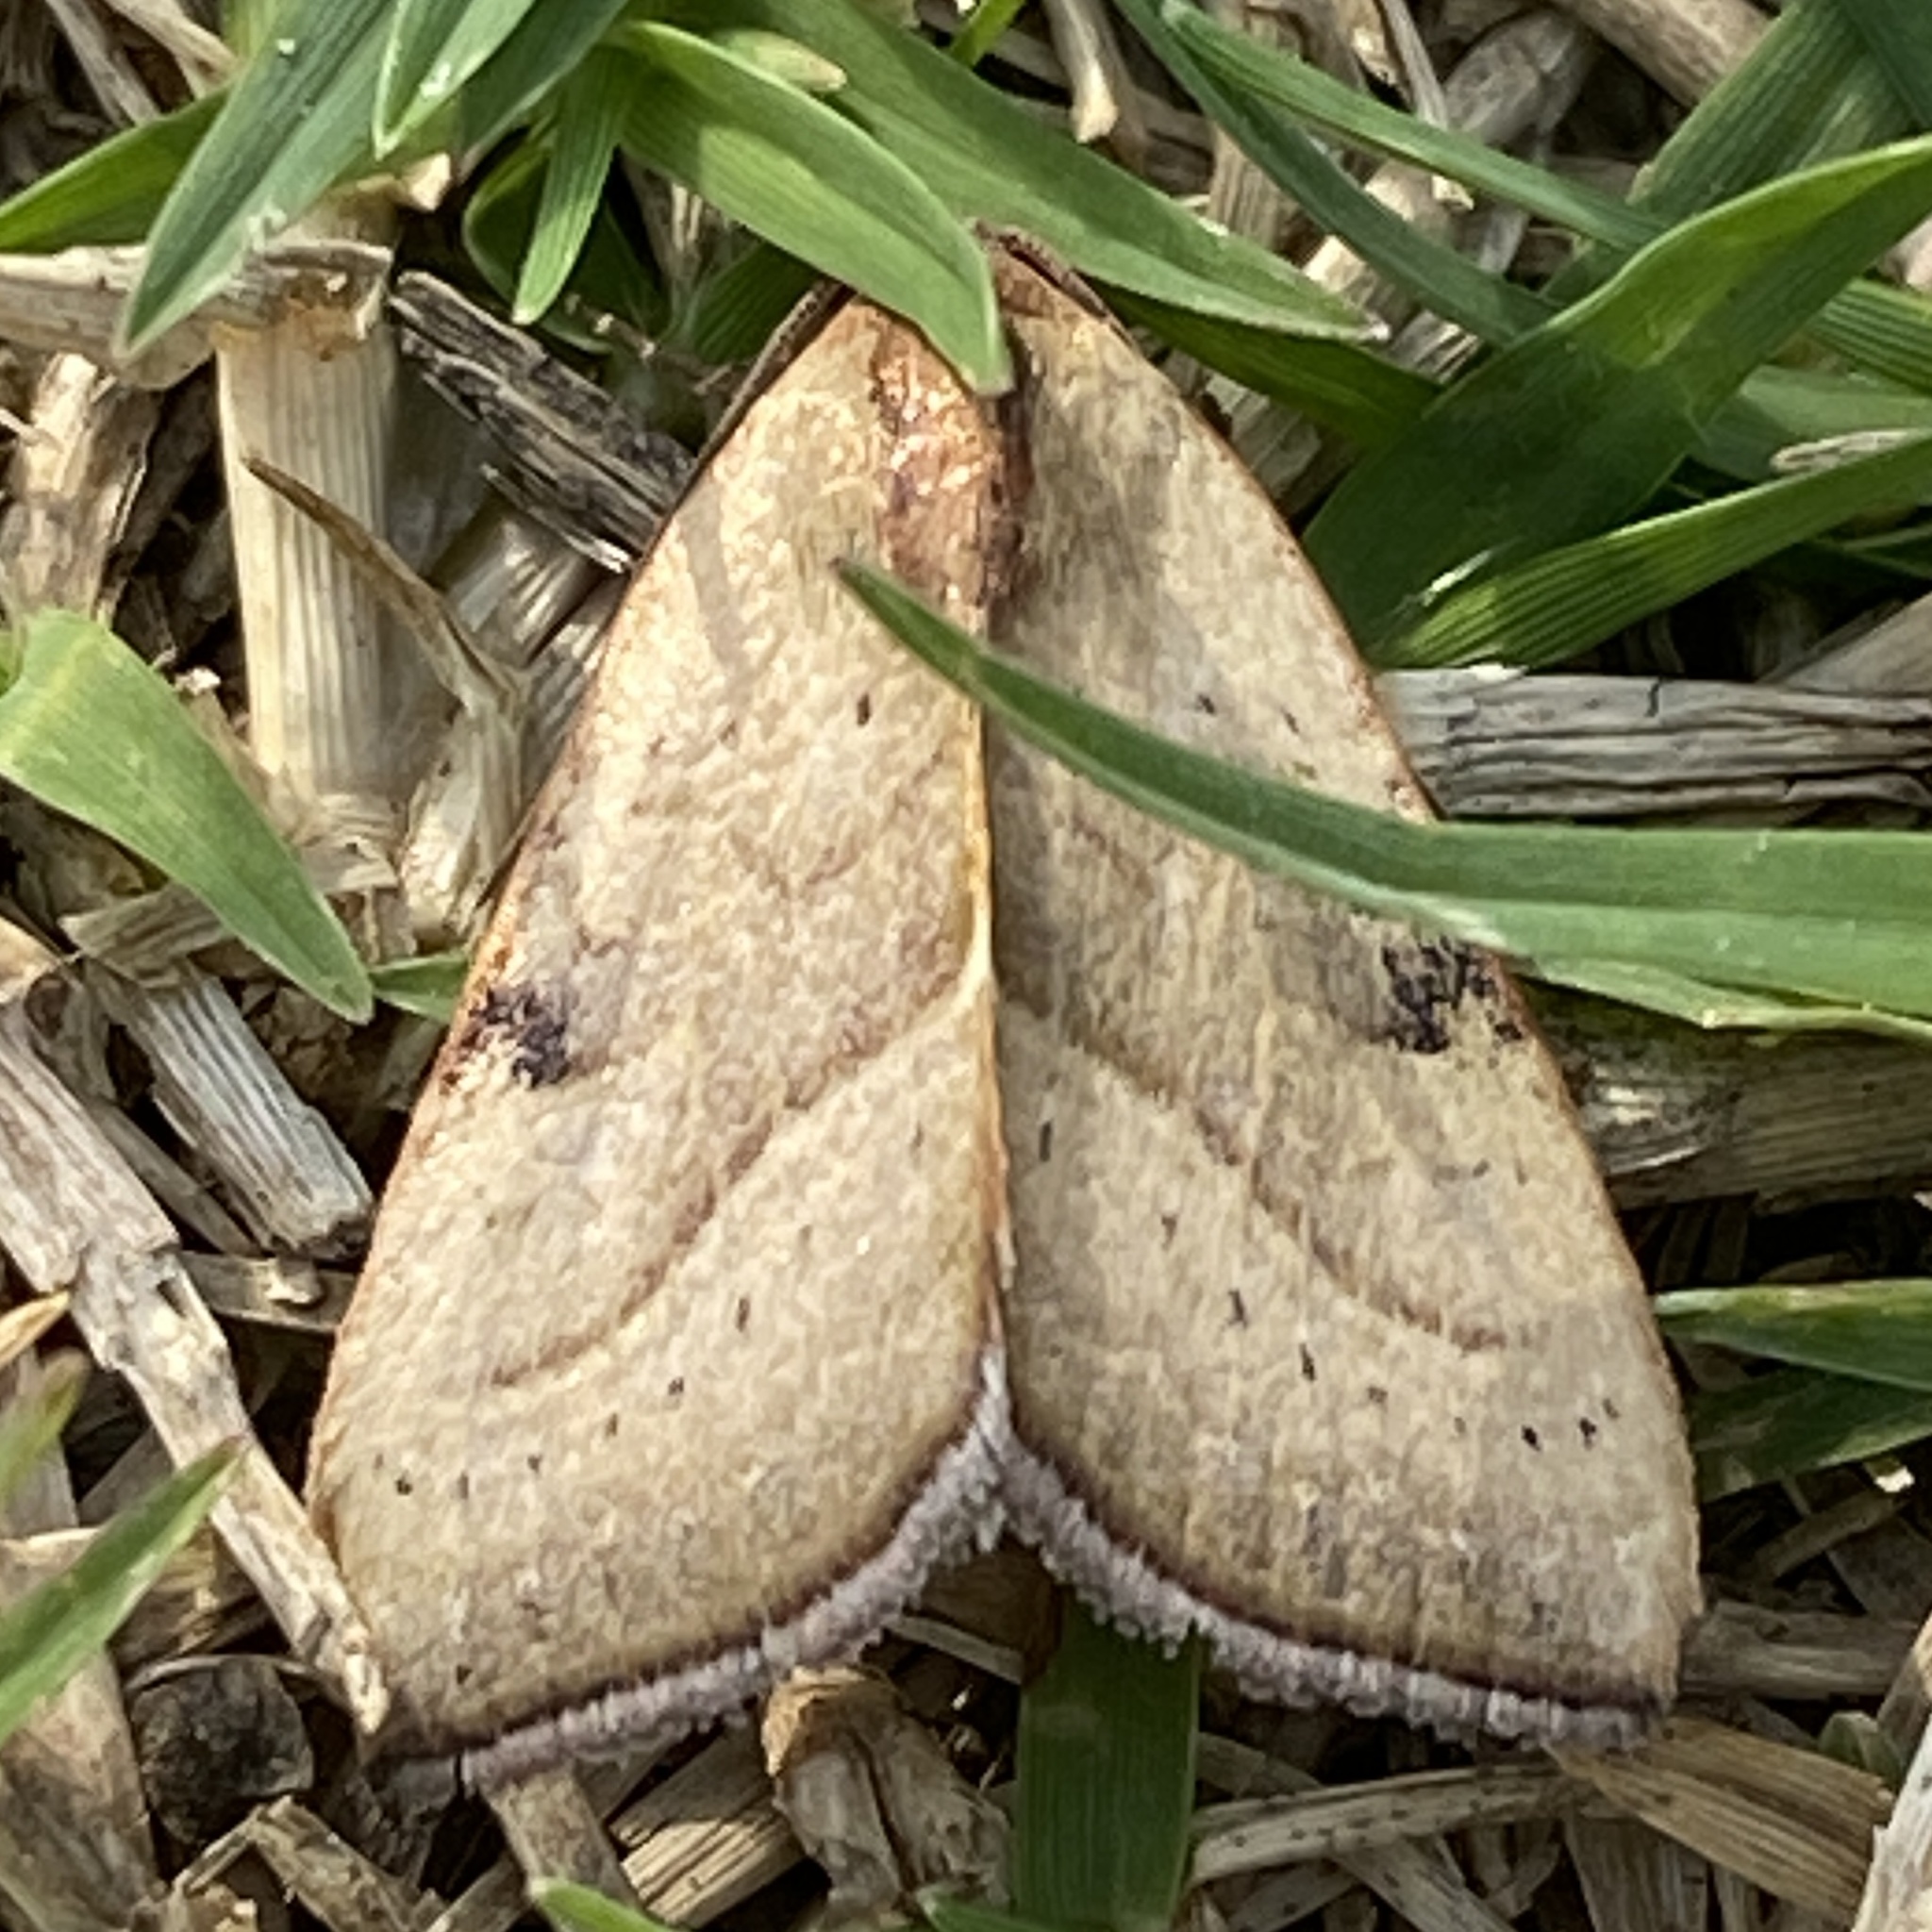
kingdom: Animalia
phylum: Arthropoda
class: Insecta
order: Lepidoptera
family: Noctuidae
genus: Galgula
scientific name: Galgula partita
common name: Wedgeling
